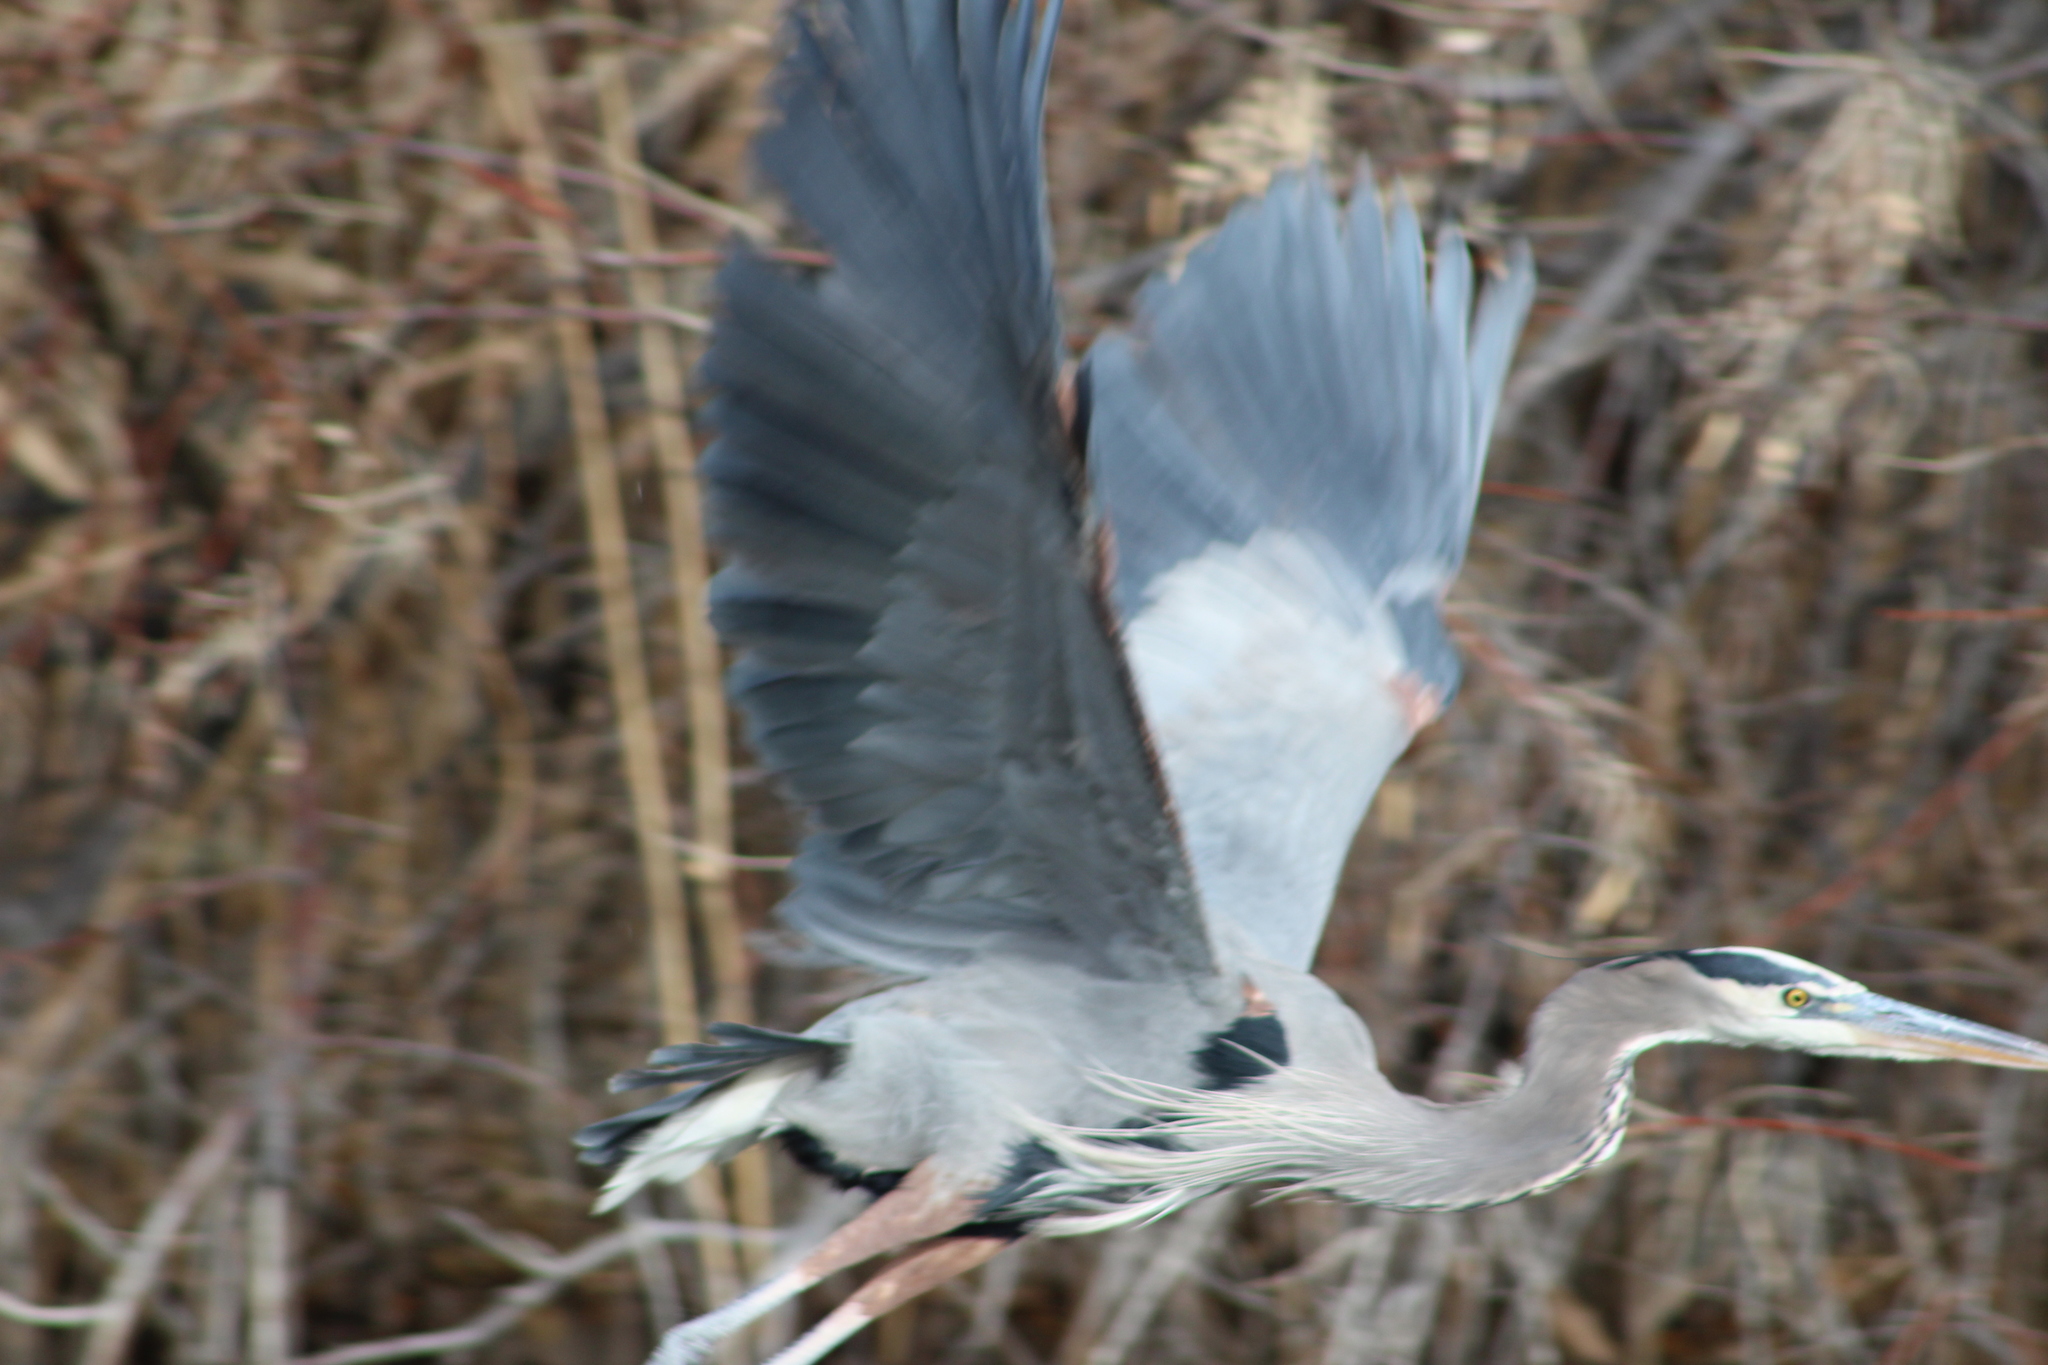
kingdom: Animalia
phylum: Chordata
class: Aves
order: Pelecaniformes
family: Ardeidae
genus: Ardea
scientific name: Ardea herodias
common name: Great blue heron
